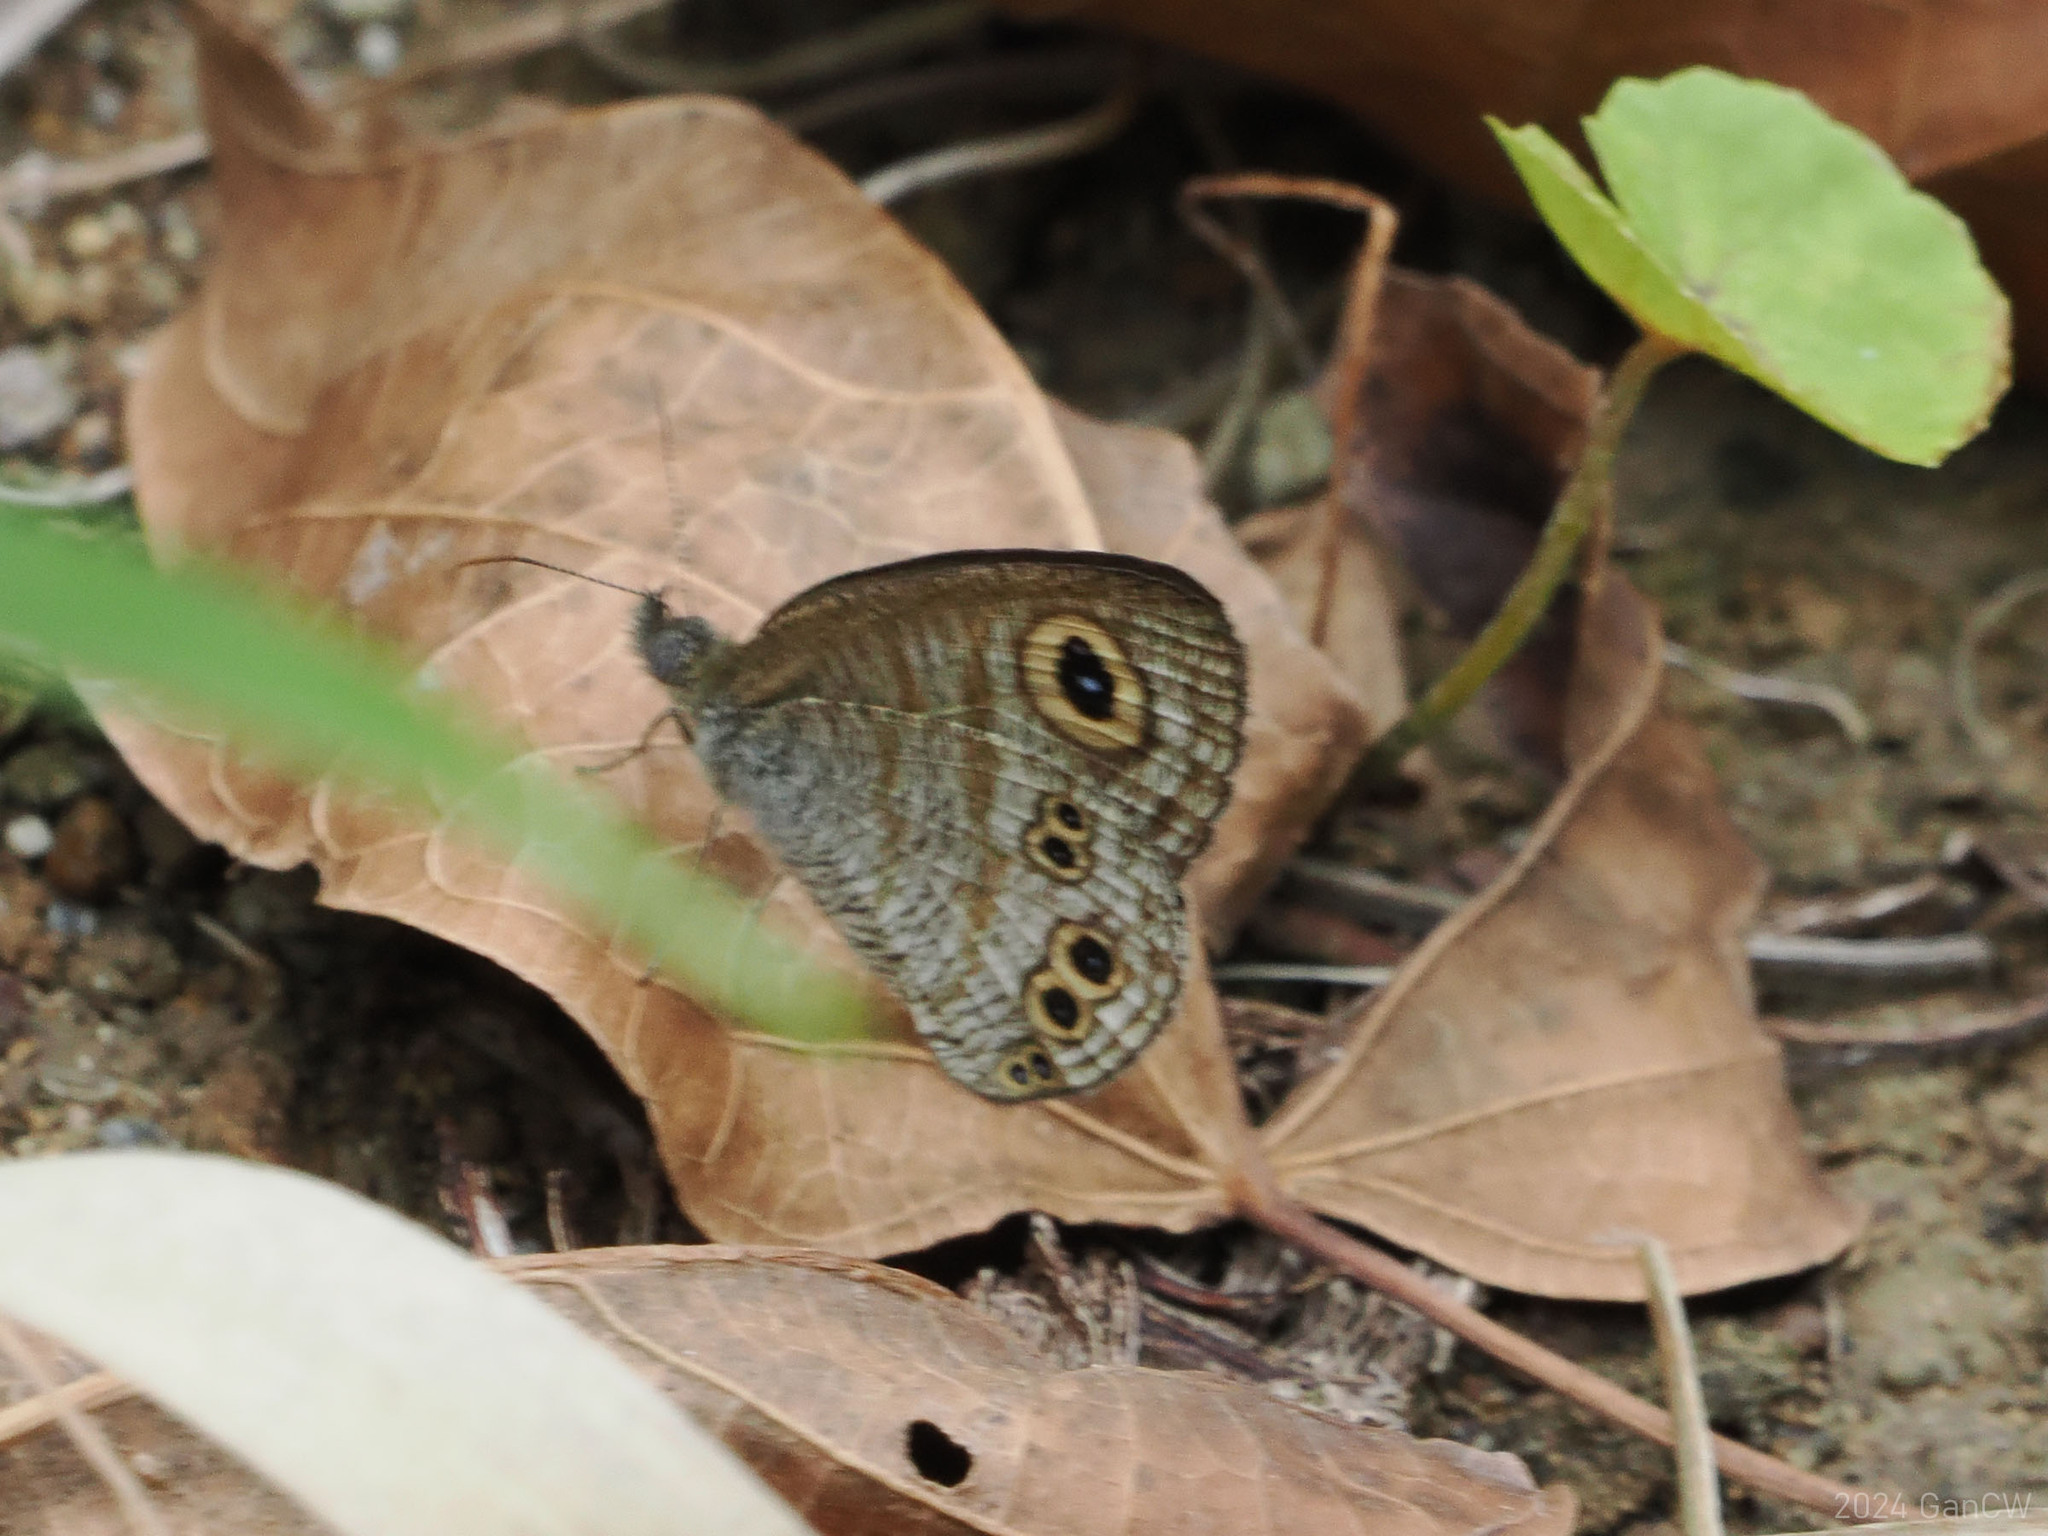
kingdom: Animalia
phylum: Arthropoda
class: Insecta
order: Lepidoptera
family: Nymphalidae
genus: Ypthima
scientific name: Ypthima stellera
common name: Philippine five-ring
